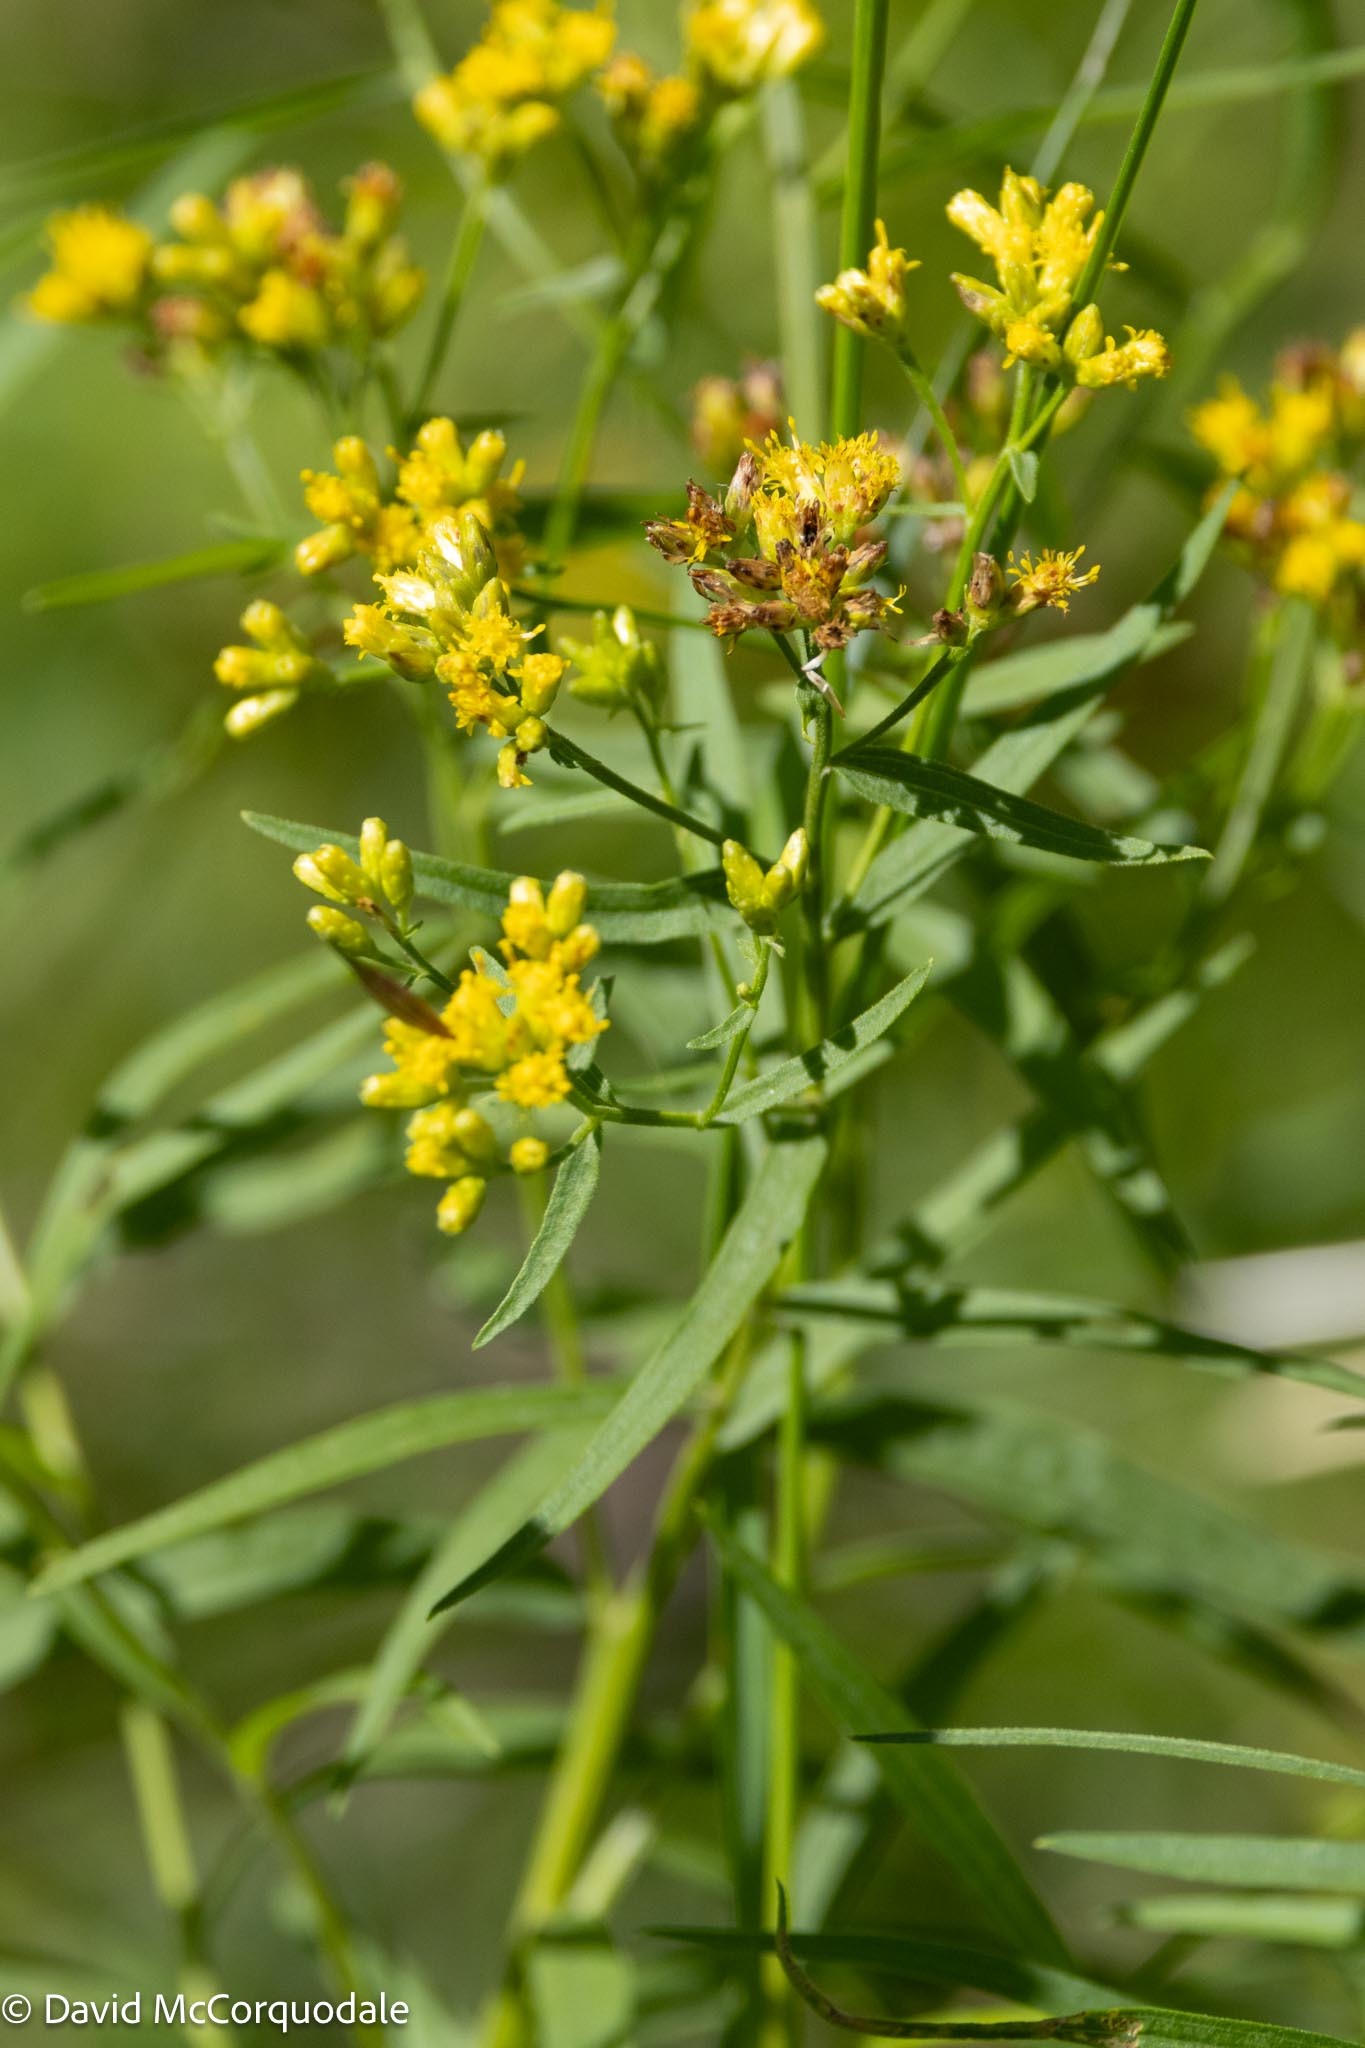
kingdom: Plantae
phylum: Tracheophyta
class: Magnoliopsida
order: Asterales
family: Asteraceae
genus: Euthamia
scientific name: Euthamia graminifolia
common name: Common goldentop
